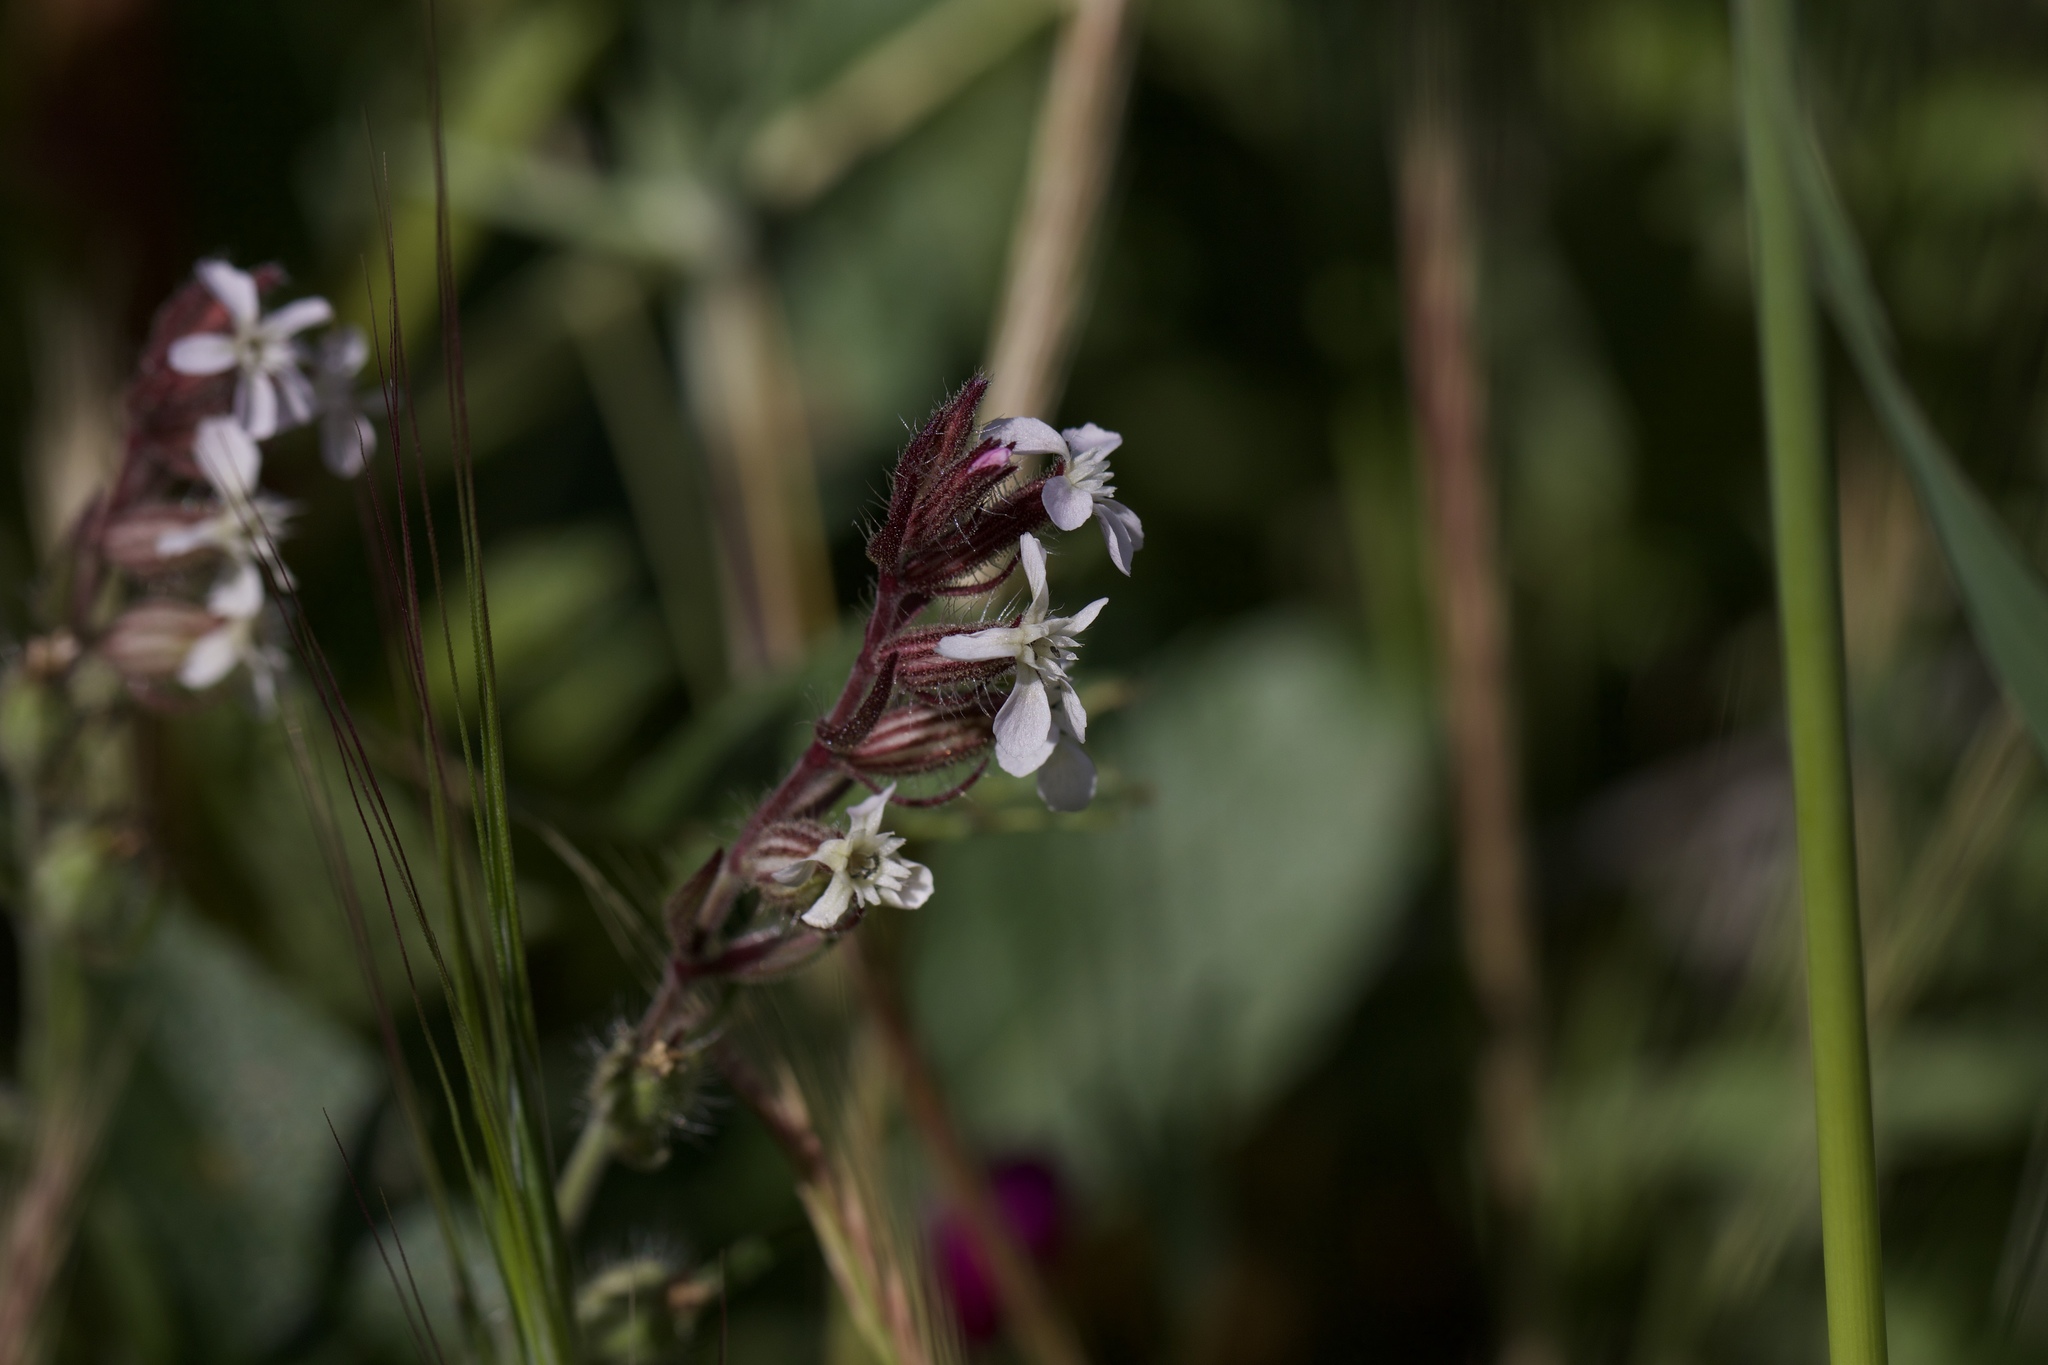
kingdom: Plantae
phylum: Tracheophyta
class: Magnoliopsida
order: Caryophyllales
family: Caryophyllaceae
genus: Silene
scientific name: Silene gallica
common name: Small-flowered catchfly
